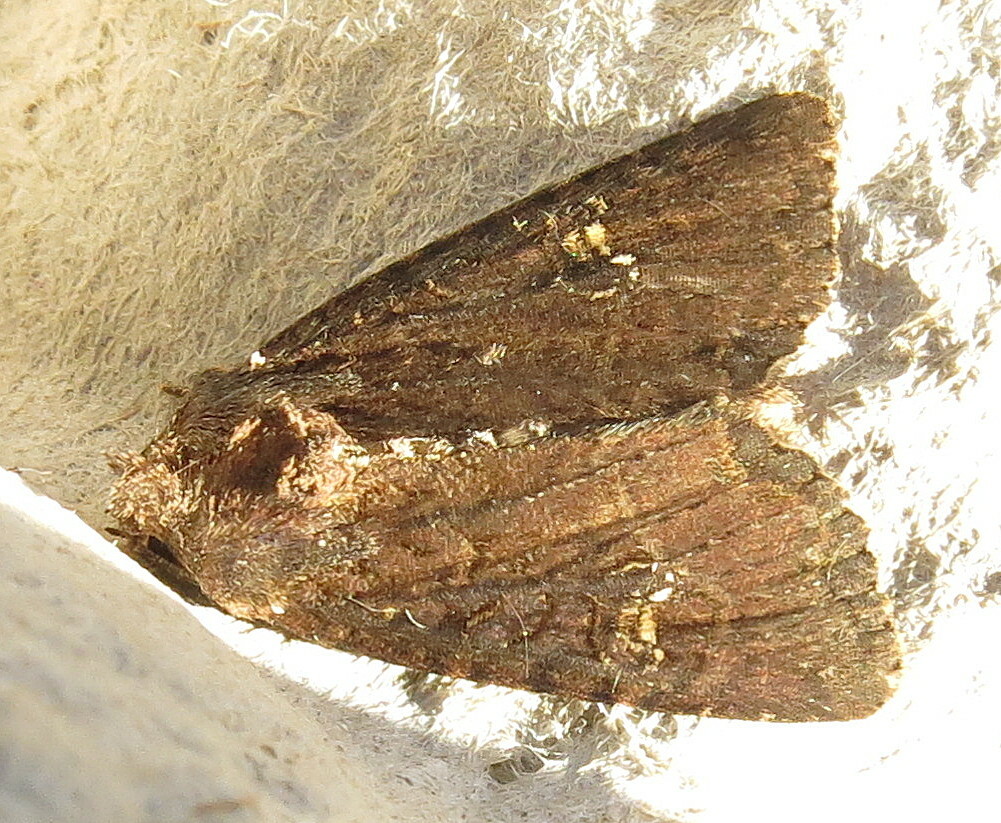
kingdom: Animalia
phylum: Arthropoda
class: Insecta
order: Lepidoptera
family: Noctuidae
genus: Mesapamea
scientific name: Mesapamea
